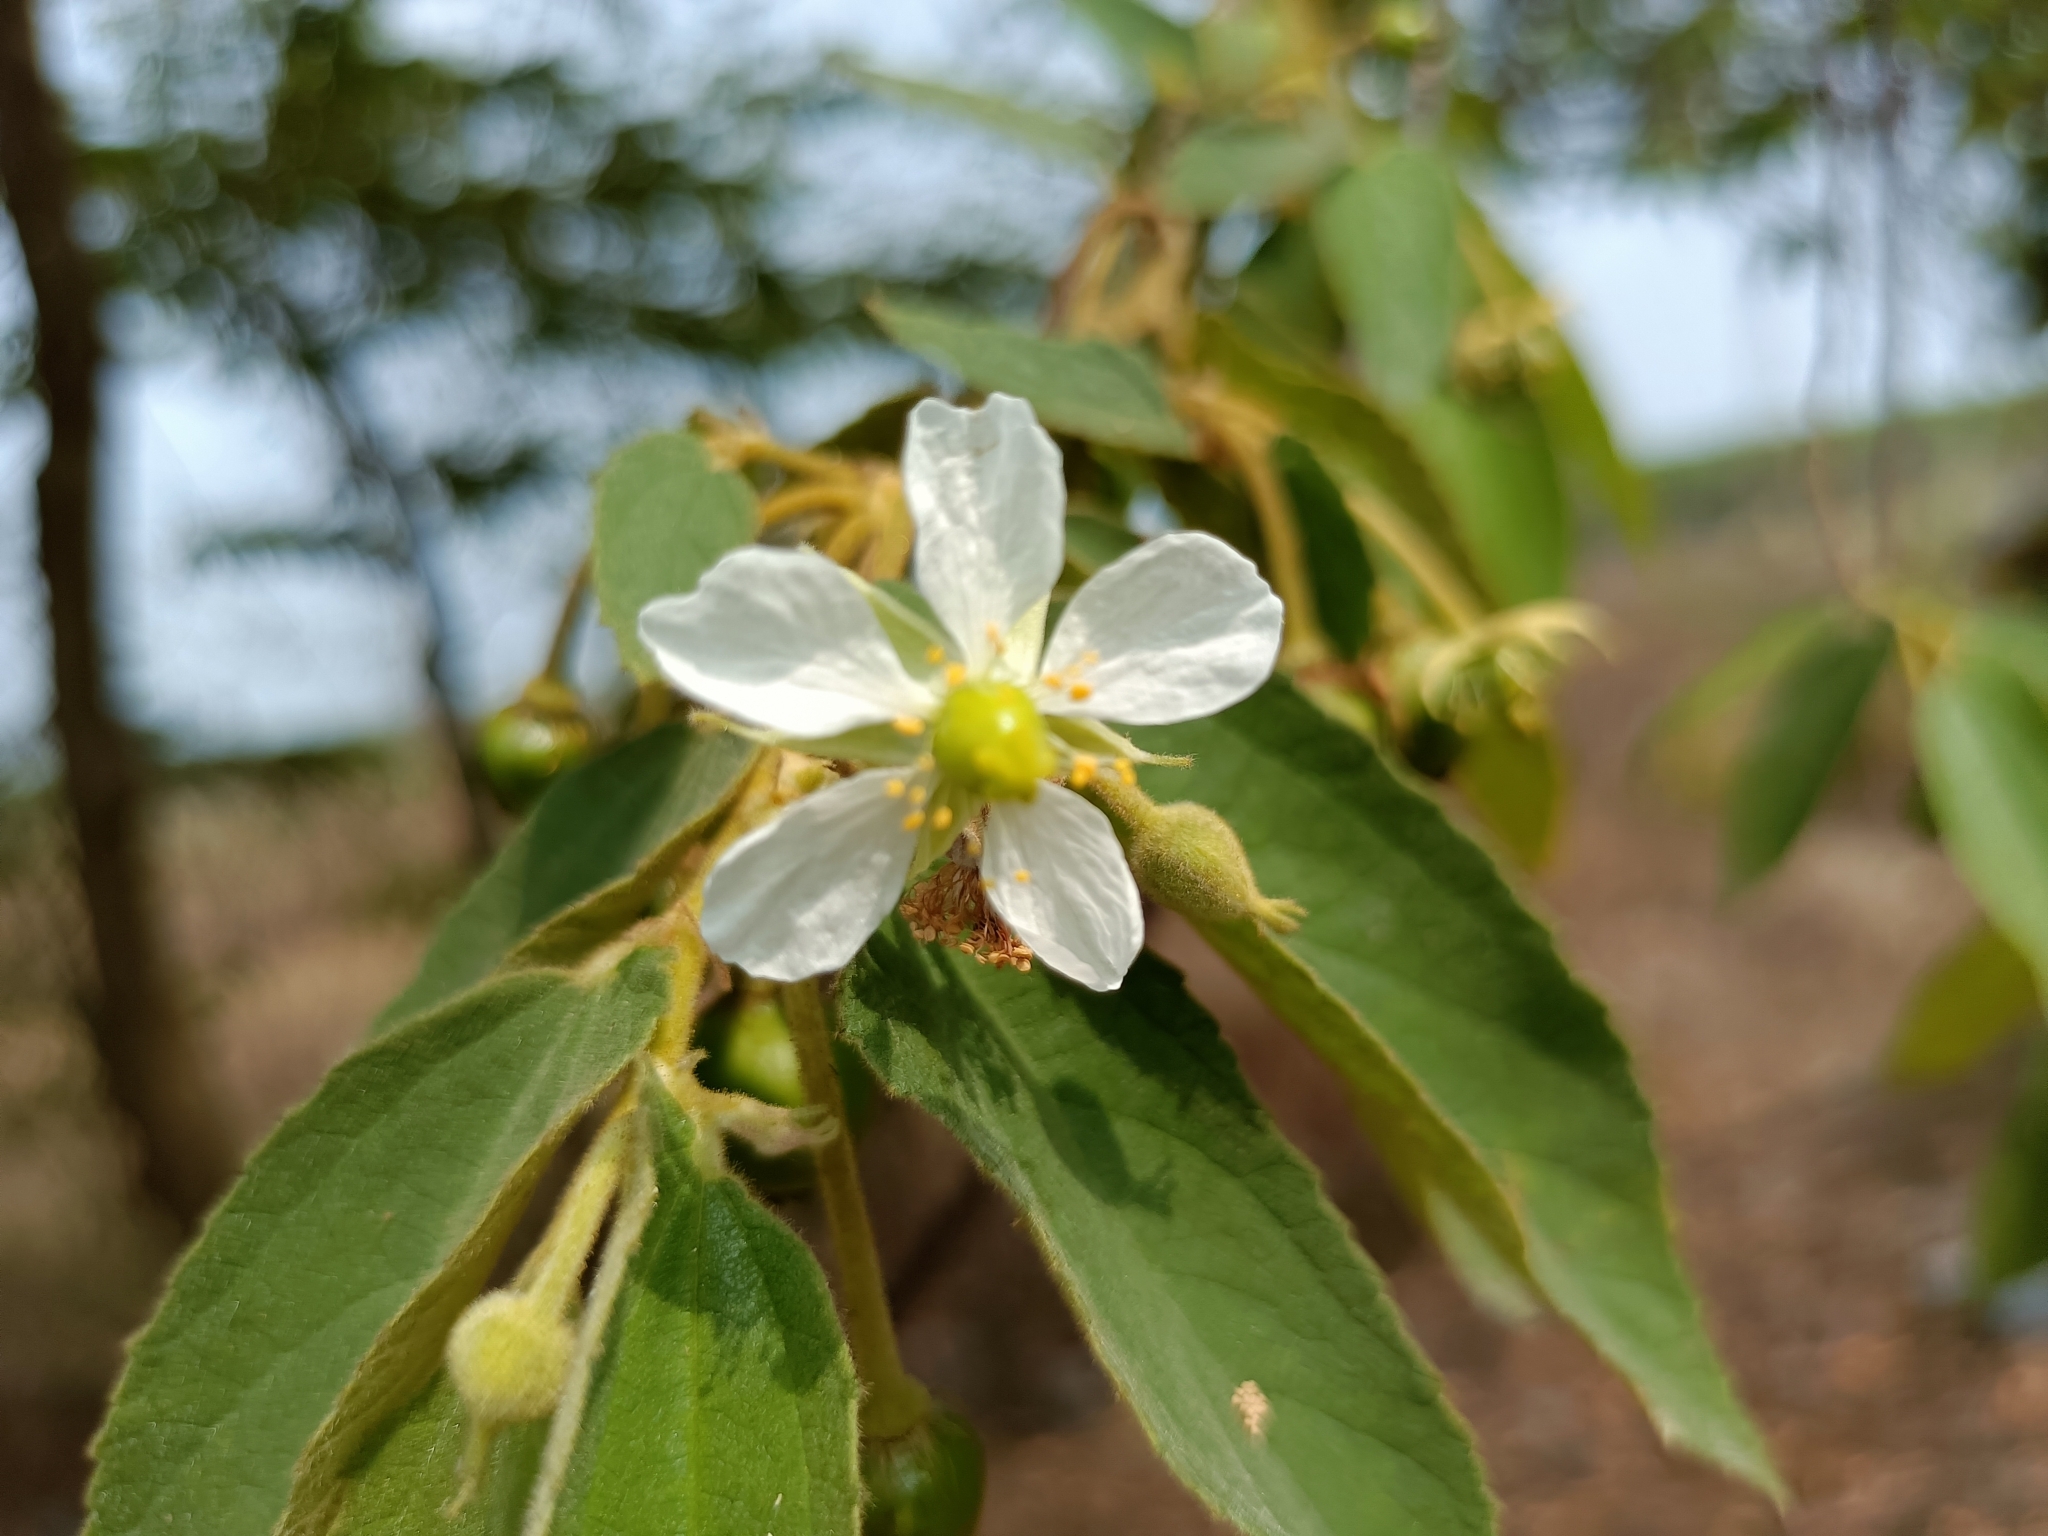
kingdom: Plantae
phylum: Tracheophyta
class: Magnoliopsida
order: Malvales
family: Muntingiaceae
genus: Muntingia
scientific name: Muntingia calabura
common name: Strawberrytree
